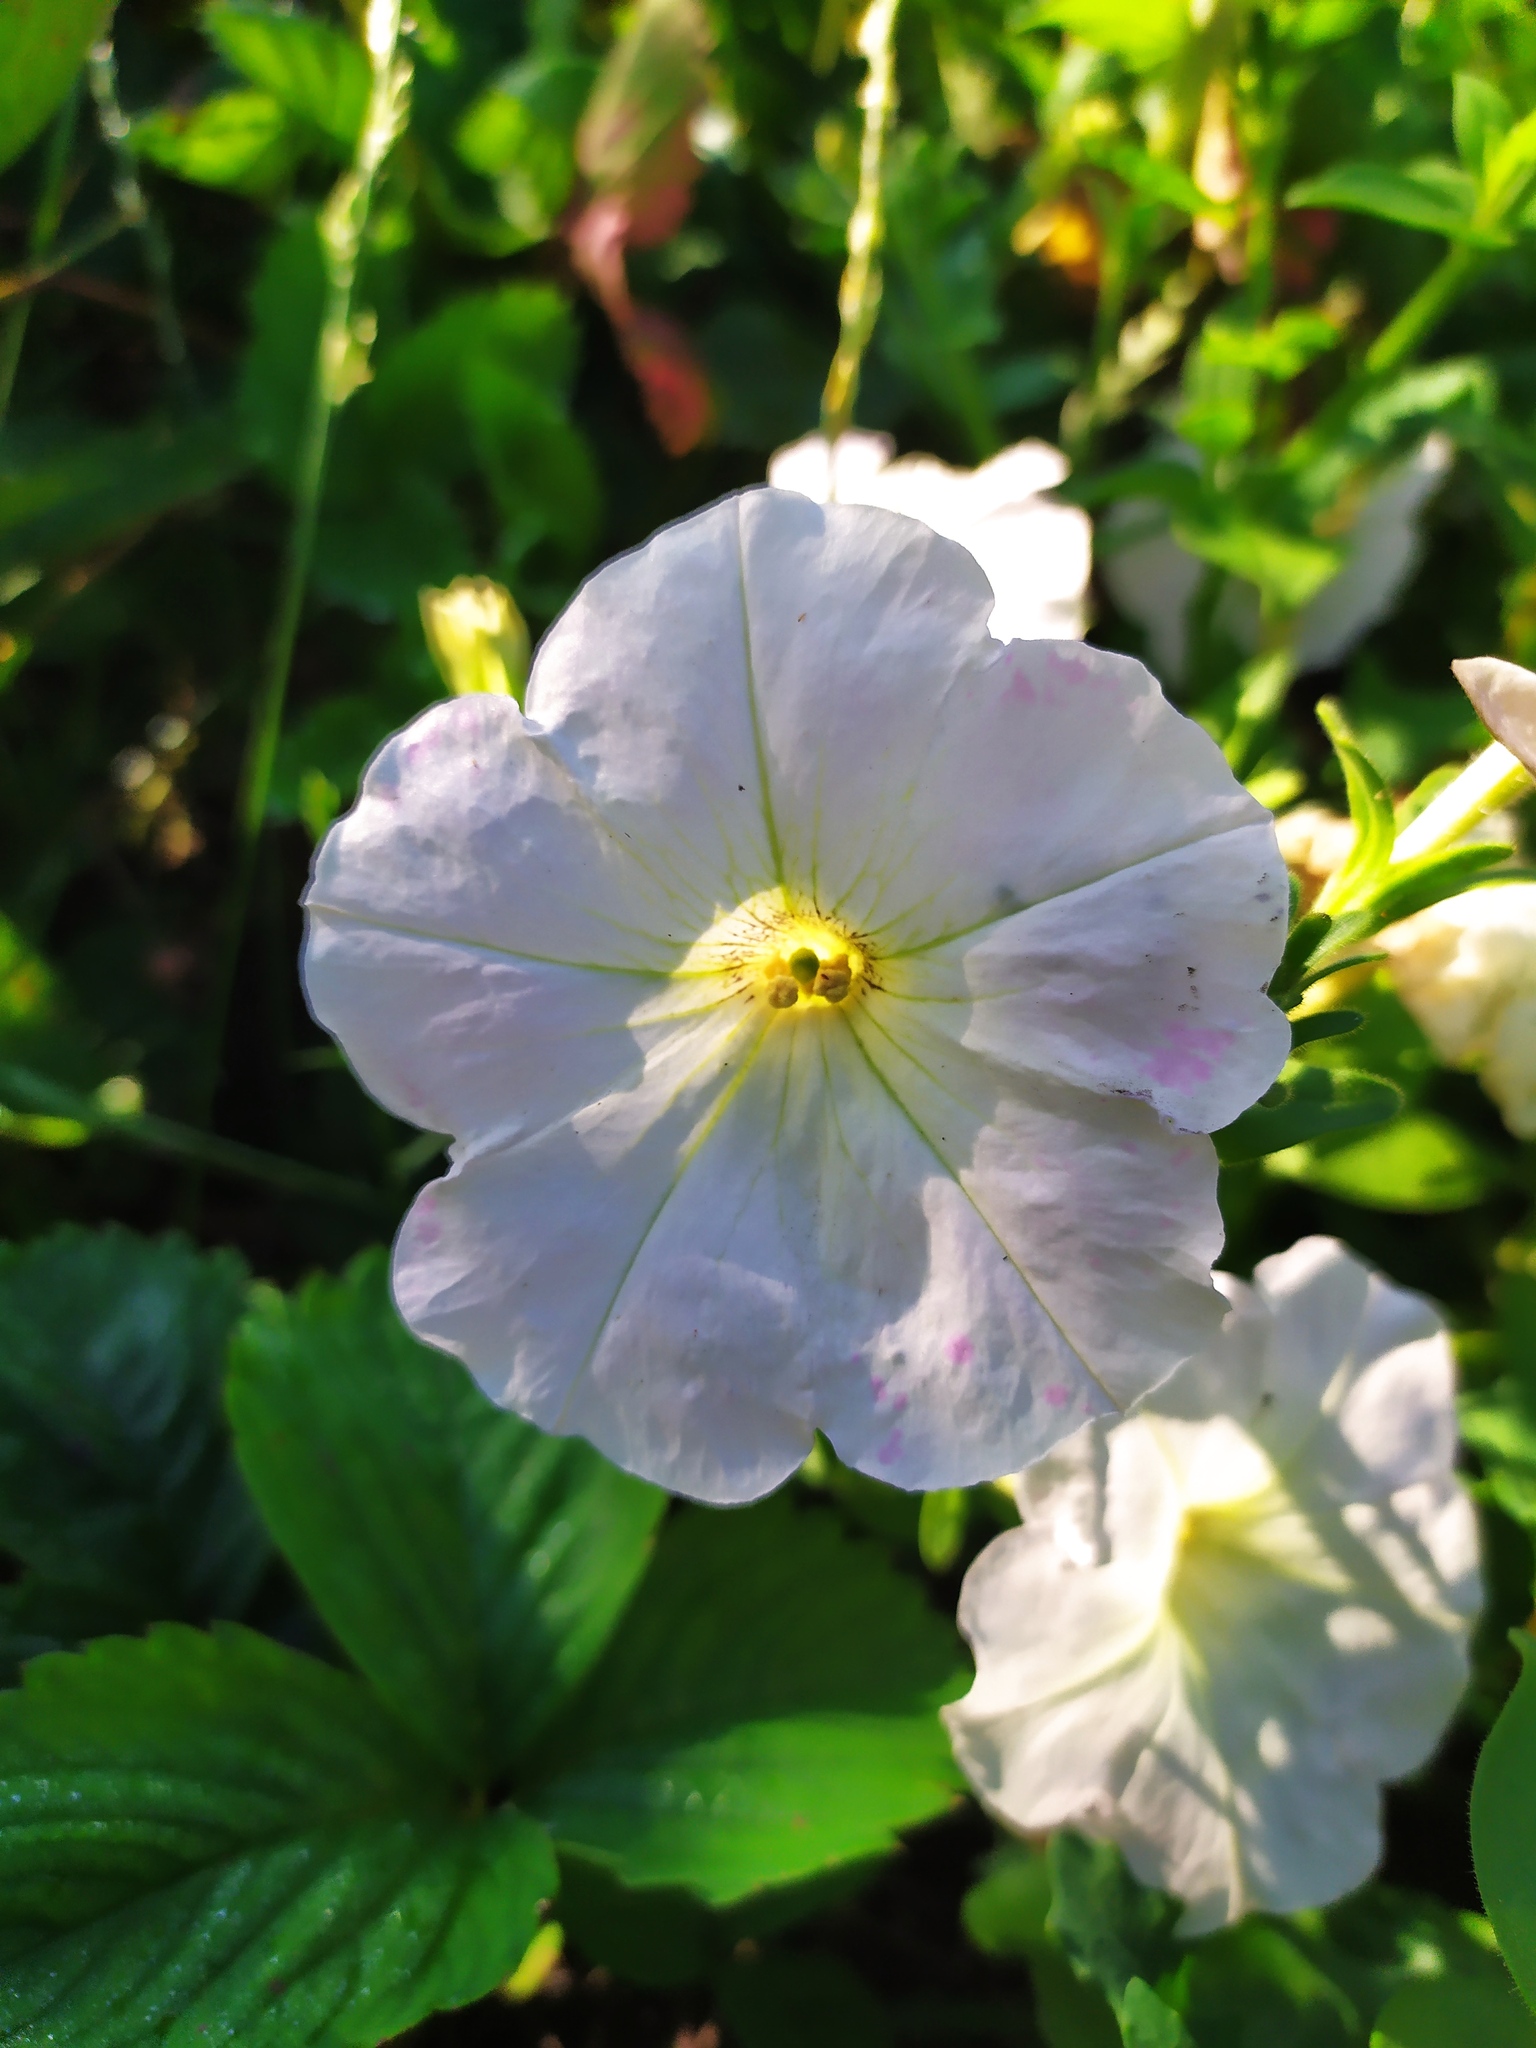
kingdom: Plantae
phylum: Tracheophyta
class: Magnoliopsida
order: Solanales
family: Solanaceae
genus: Petunia
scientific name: Petunia atkinsiana
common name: Petunia
